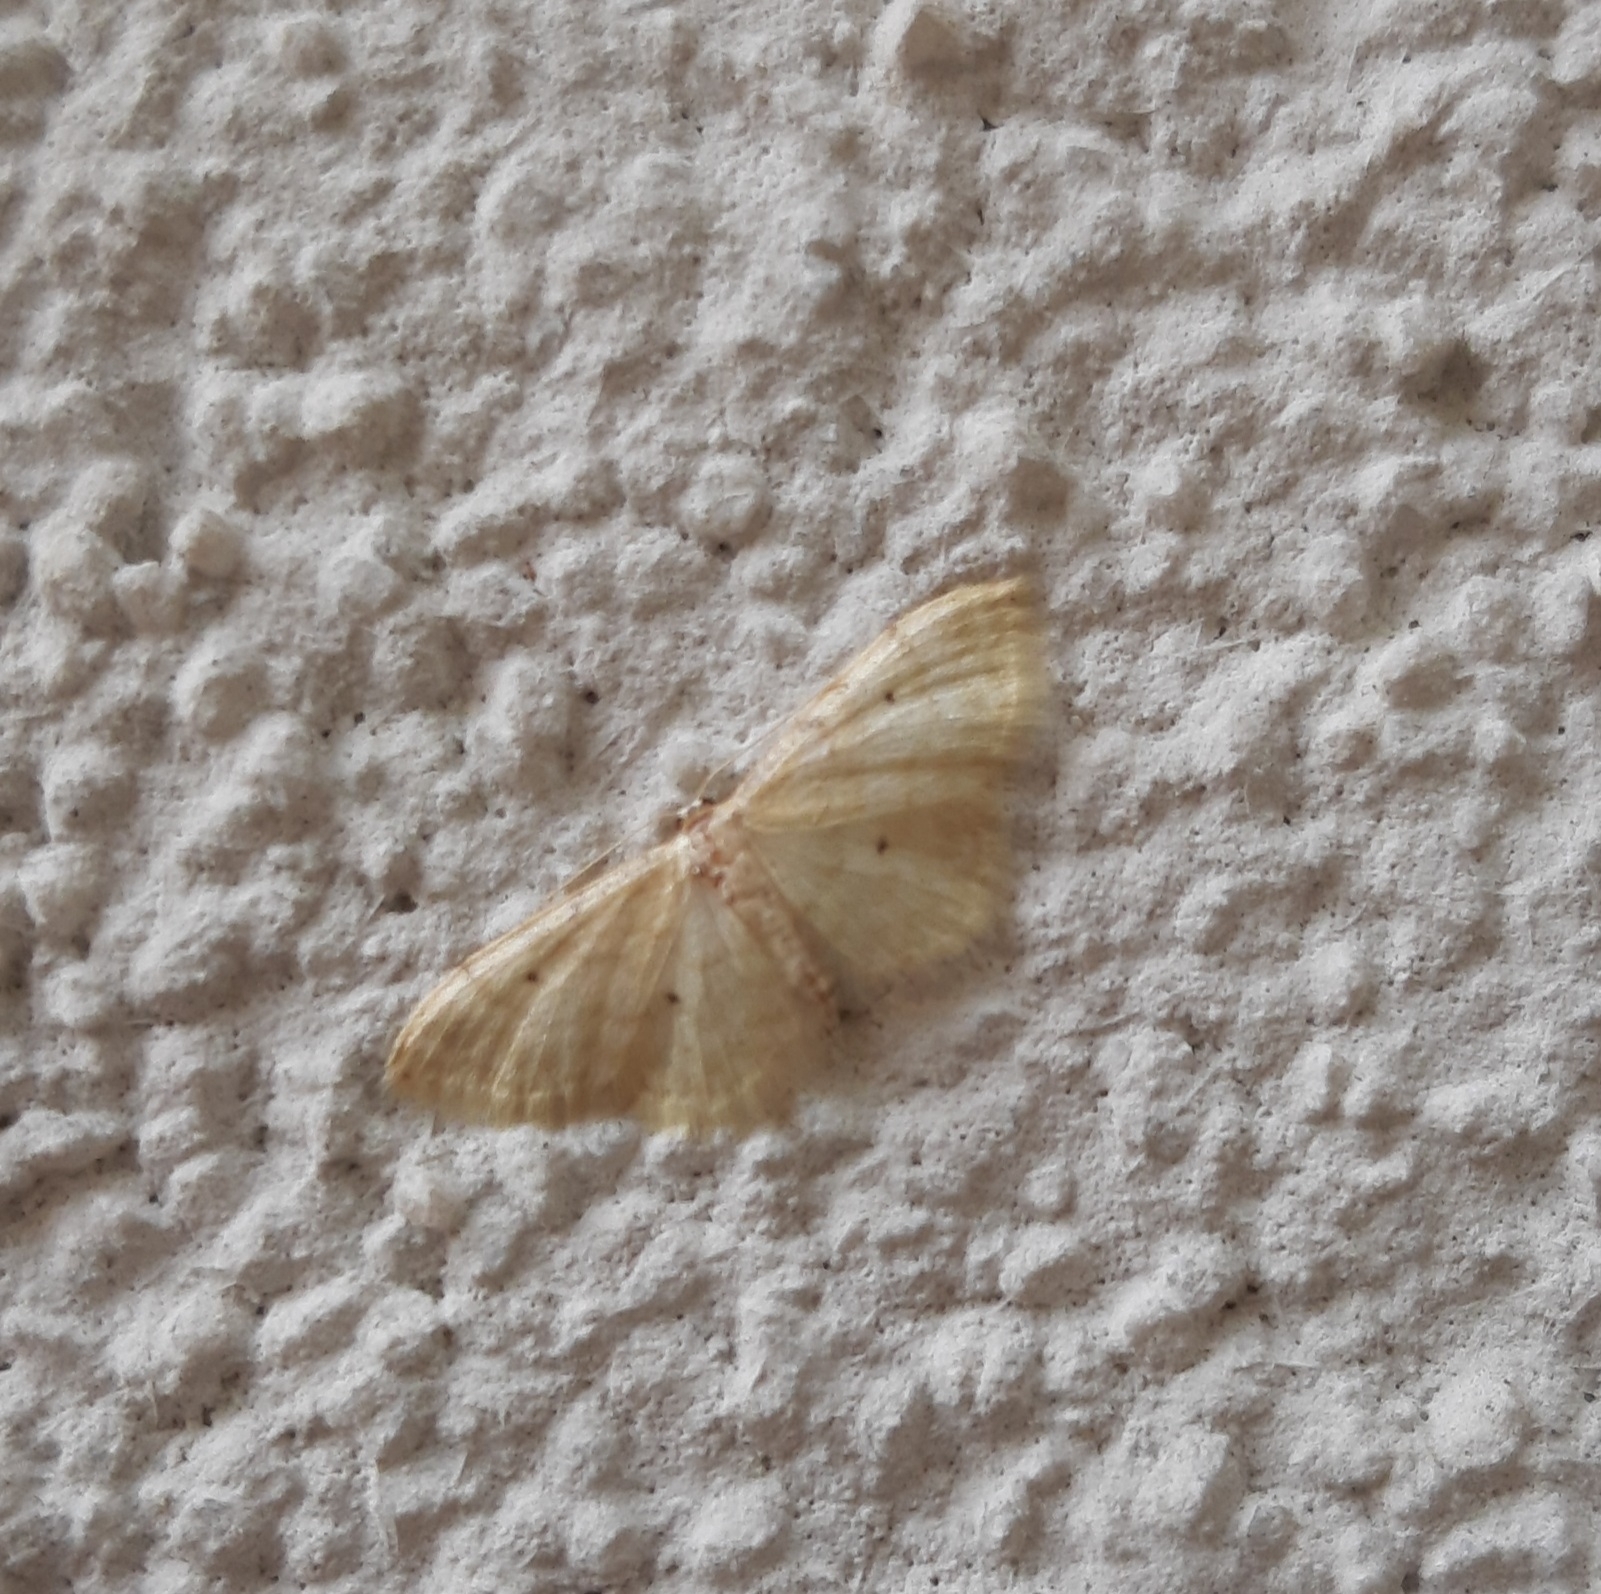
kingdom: Animalia
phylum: Arthropoda
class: Insecta
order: Lepidoptera
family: Geometridae
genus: Idaea
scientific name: Idaea fuscovenosa
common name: Dwarf cream wave
